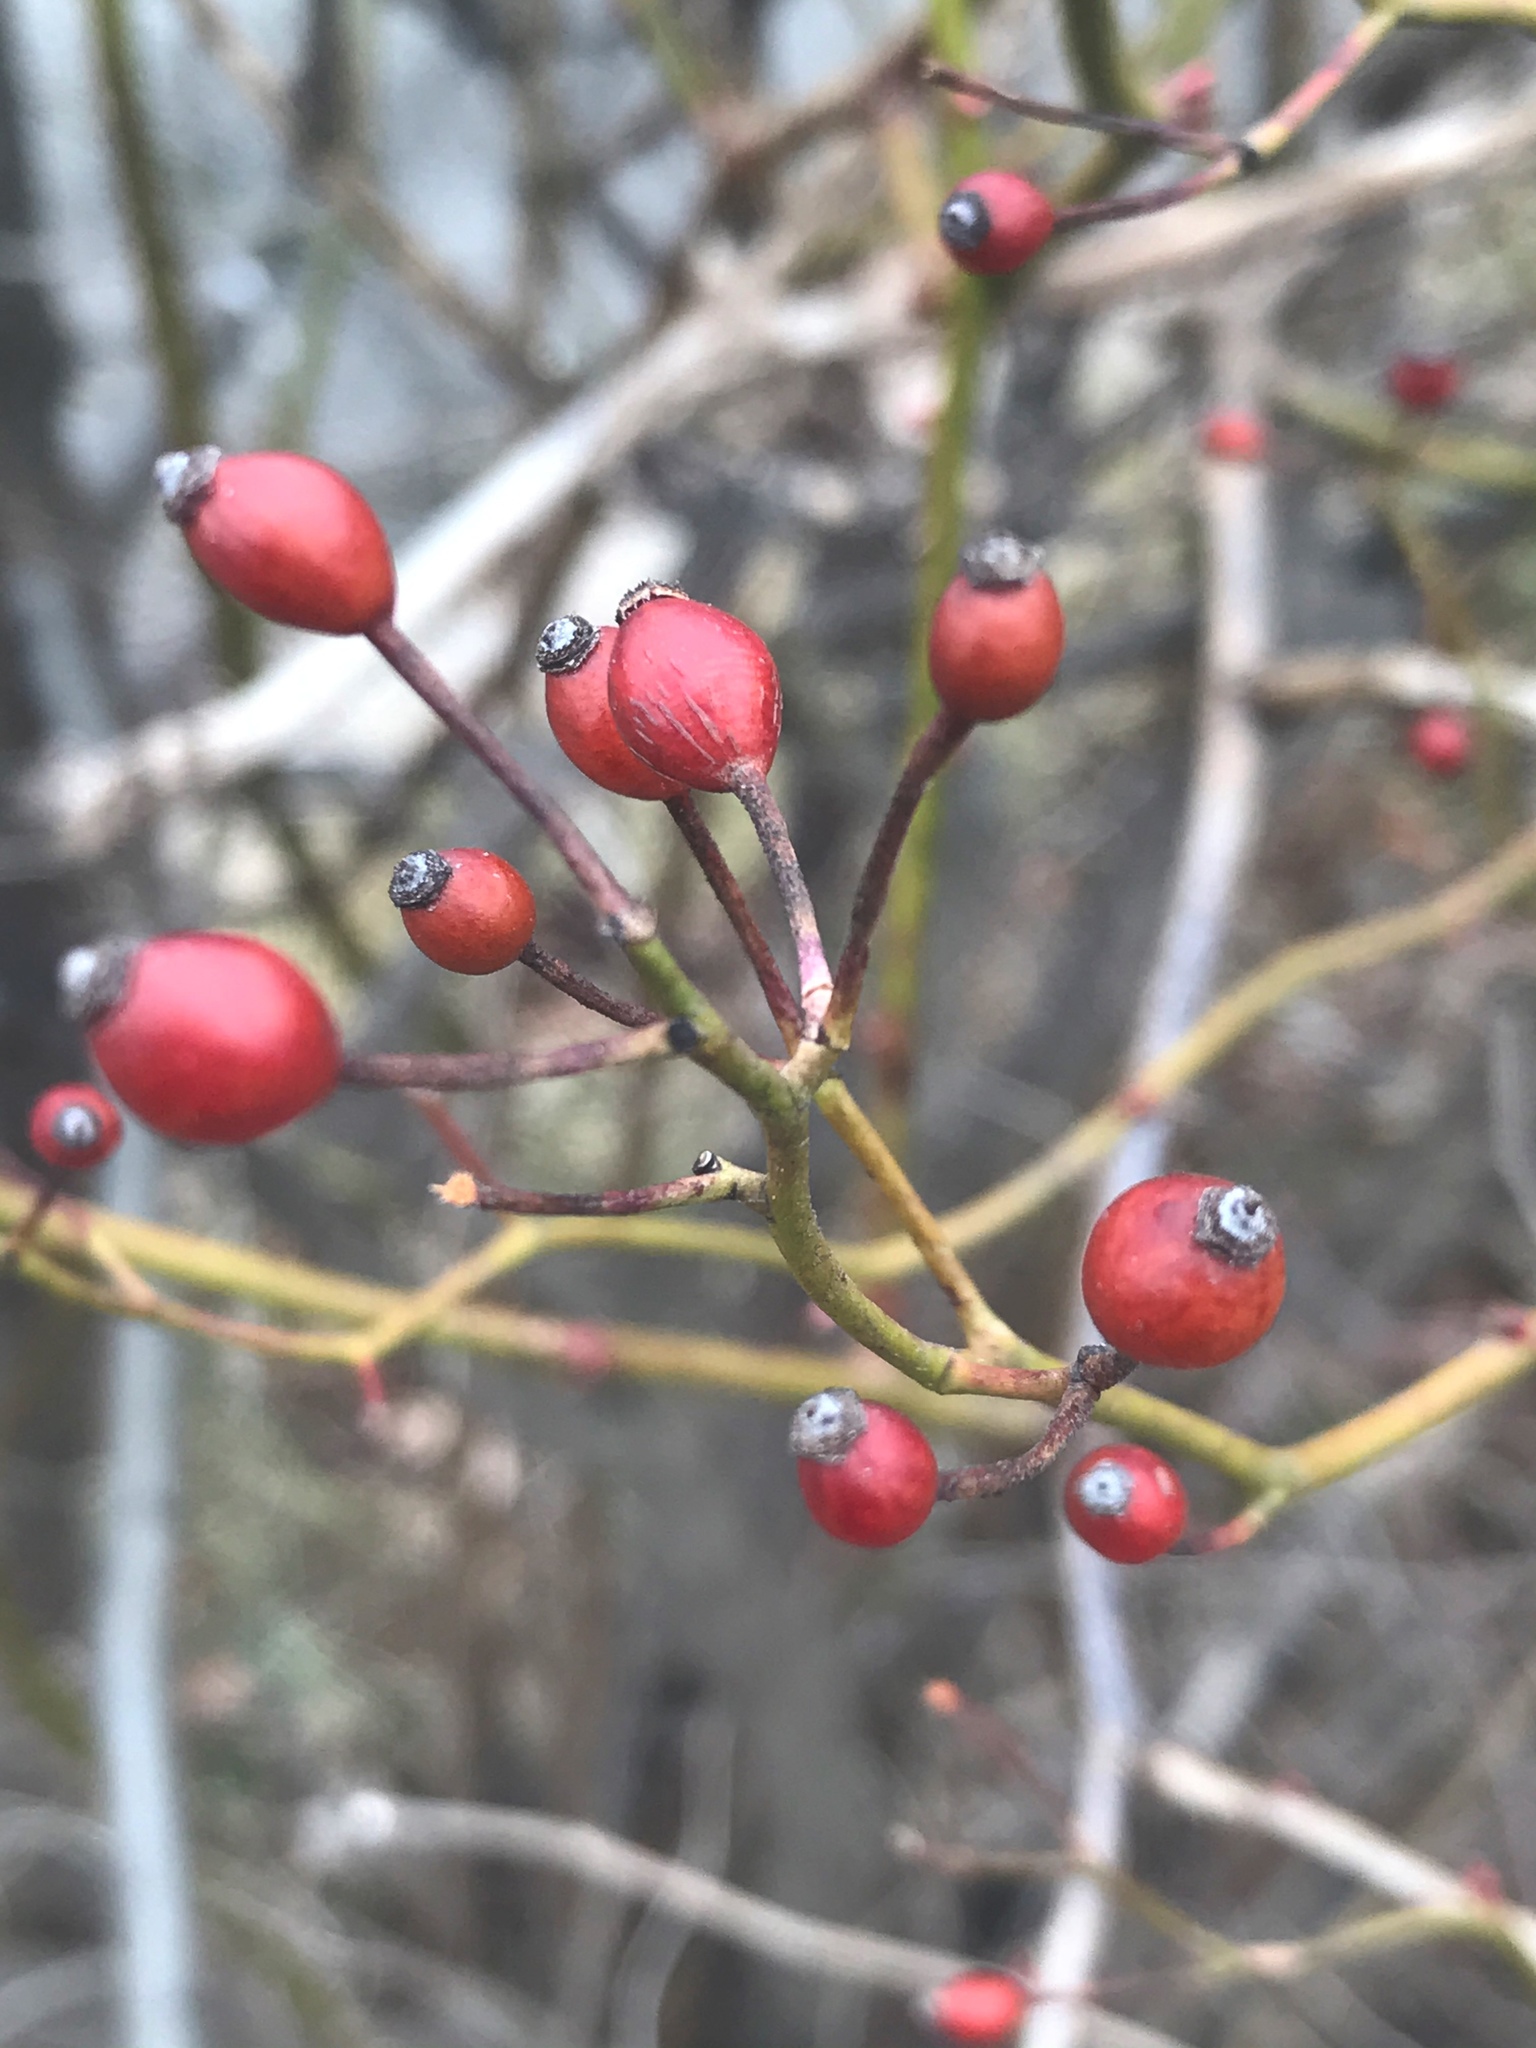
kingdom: Plantae
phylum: Tracheophyta
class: Magnoliopsida
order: Rosales
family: Rosaceae
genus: Rosa
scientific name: Rosa multiflora
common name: Multiflora rose
